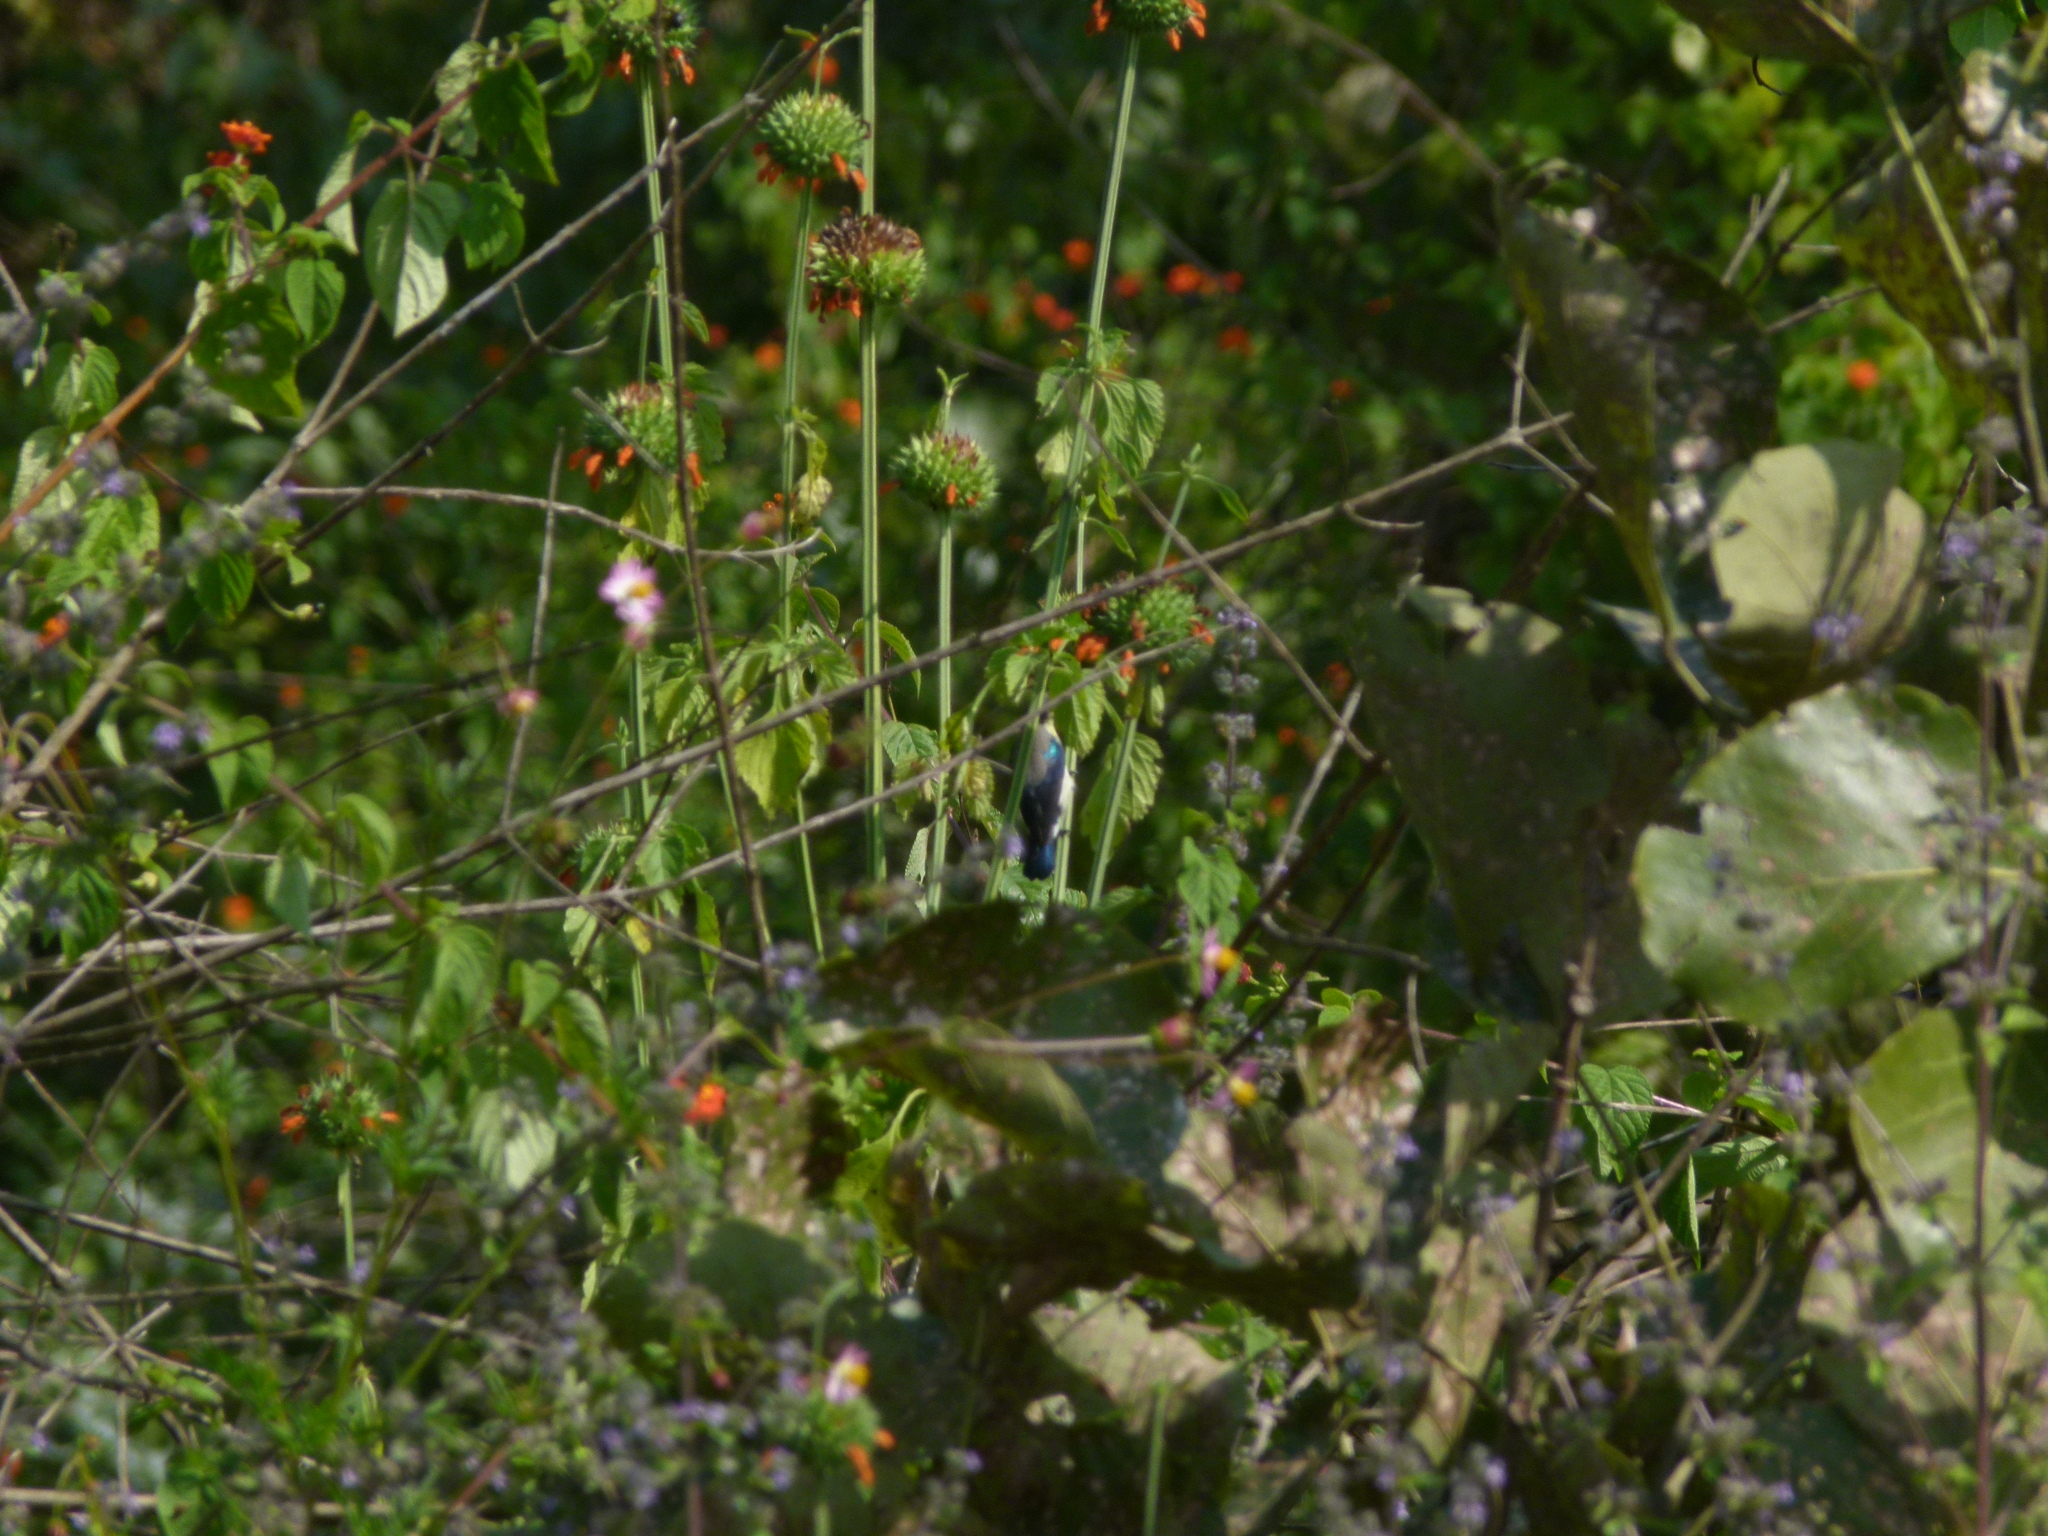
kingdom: Animalia
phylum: Chordata
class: Aves
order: Passeriformes
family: Nectariniidae
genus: Cinnyris
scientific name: Cinnyris asiaticus
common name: Purple sunbird
